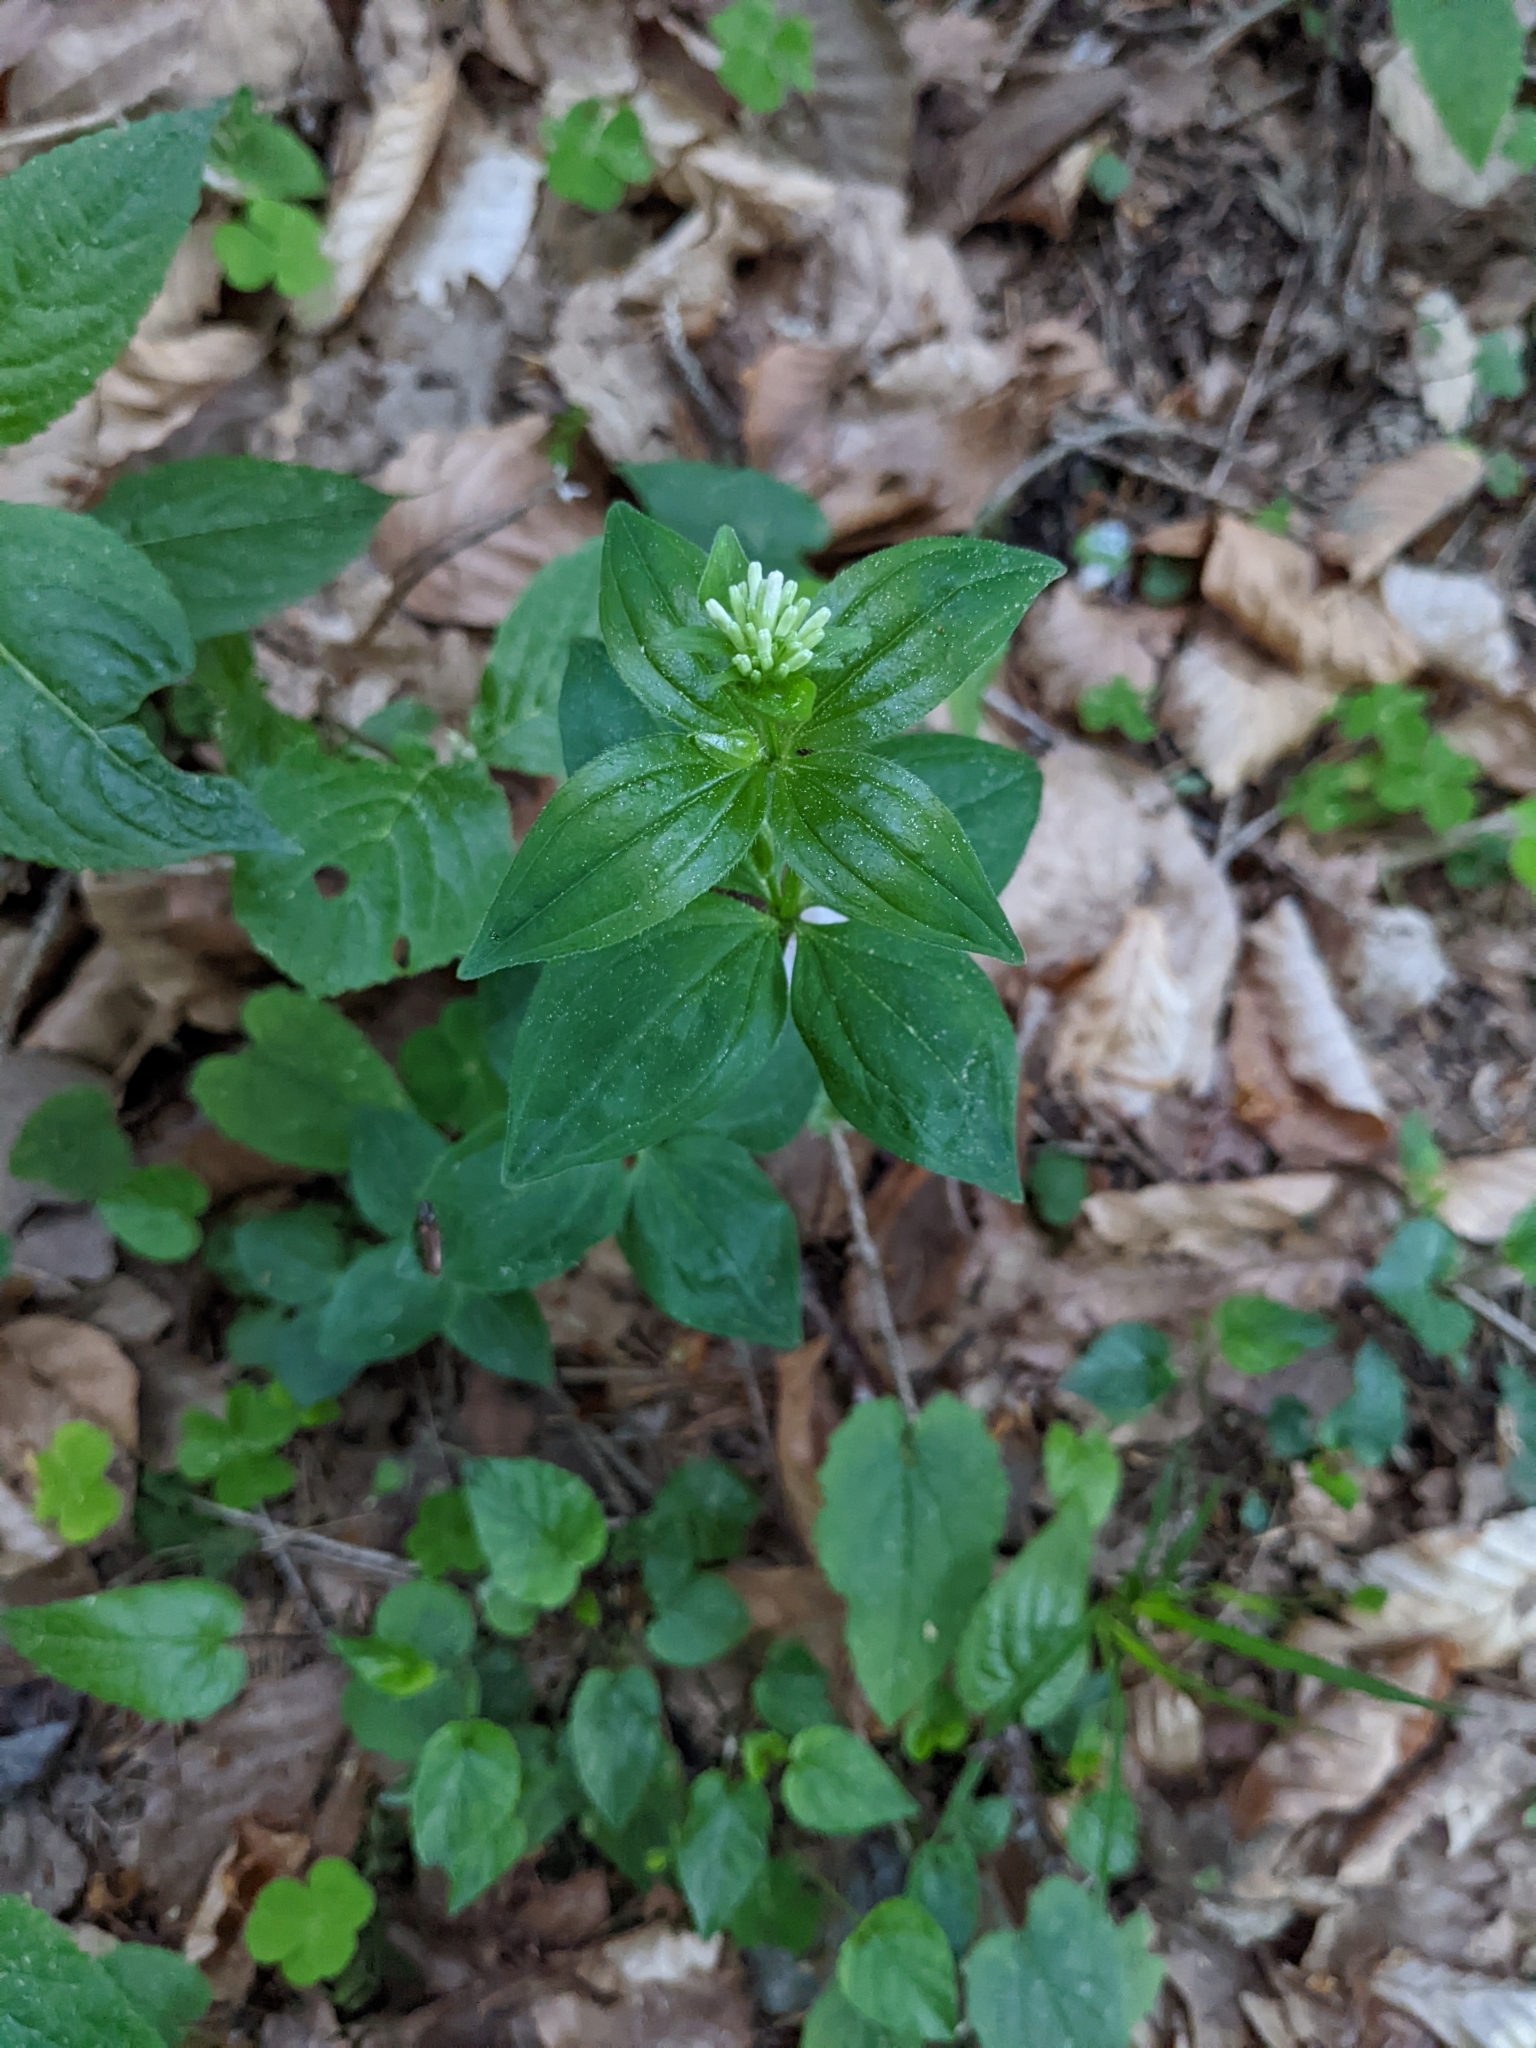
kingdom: Plantae
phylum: Tracheophyta
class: Magnoliopsida
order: Gentianales
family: Rubiaceae
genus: Asperula
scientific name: Asperula taurina
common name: Pink woodruff
